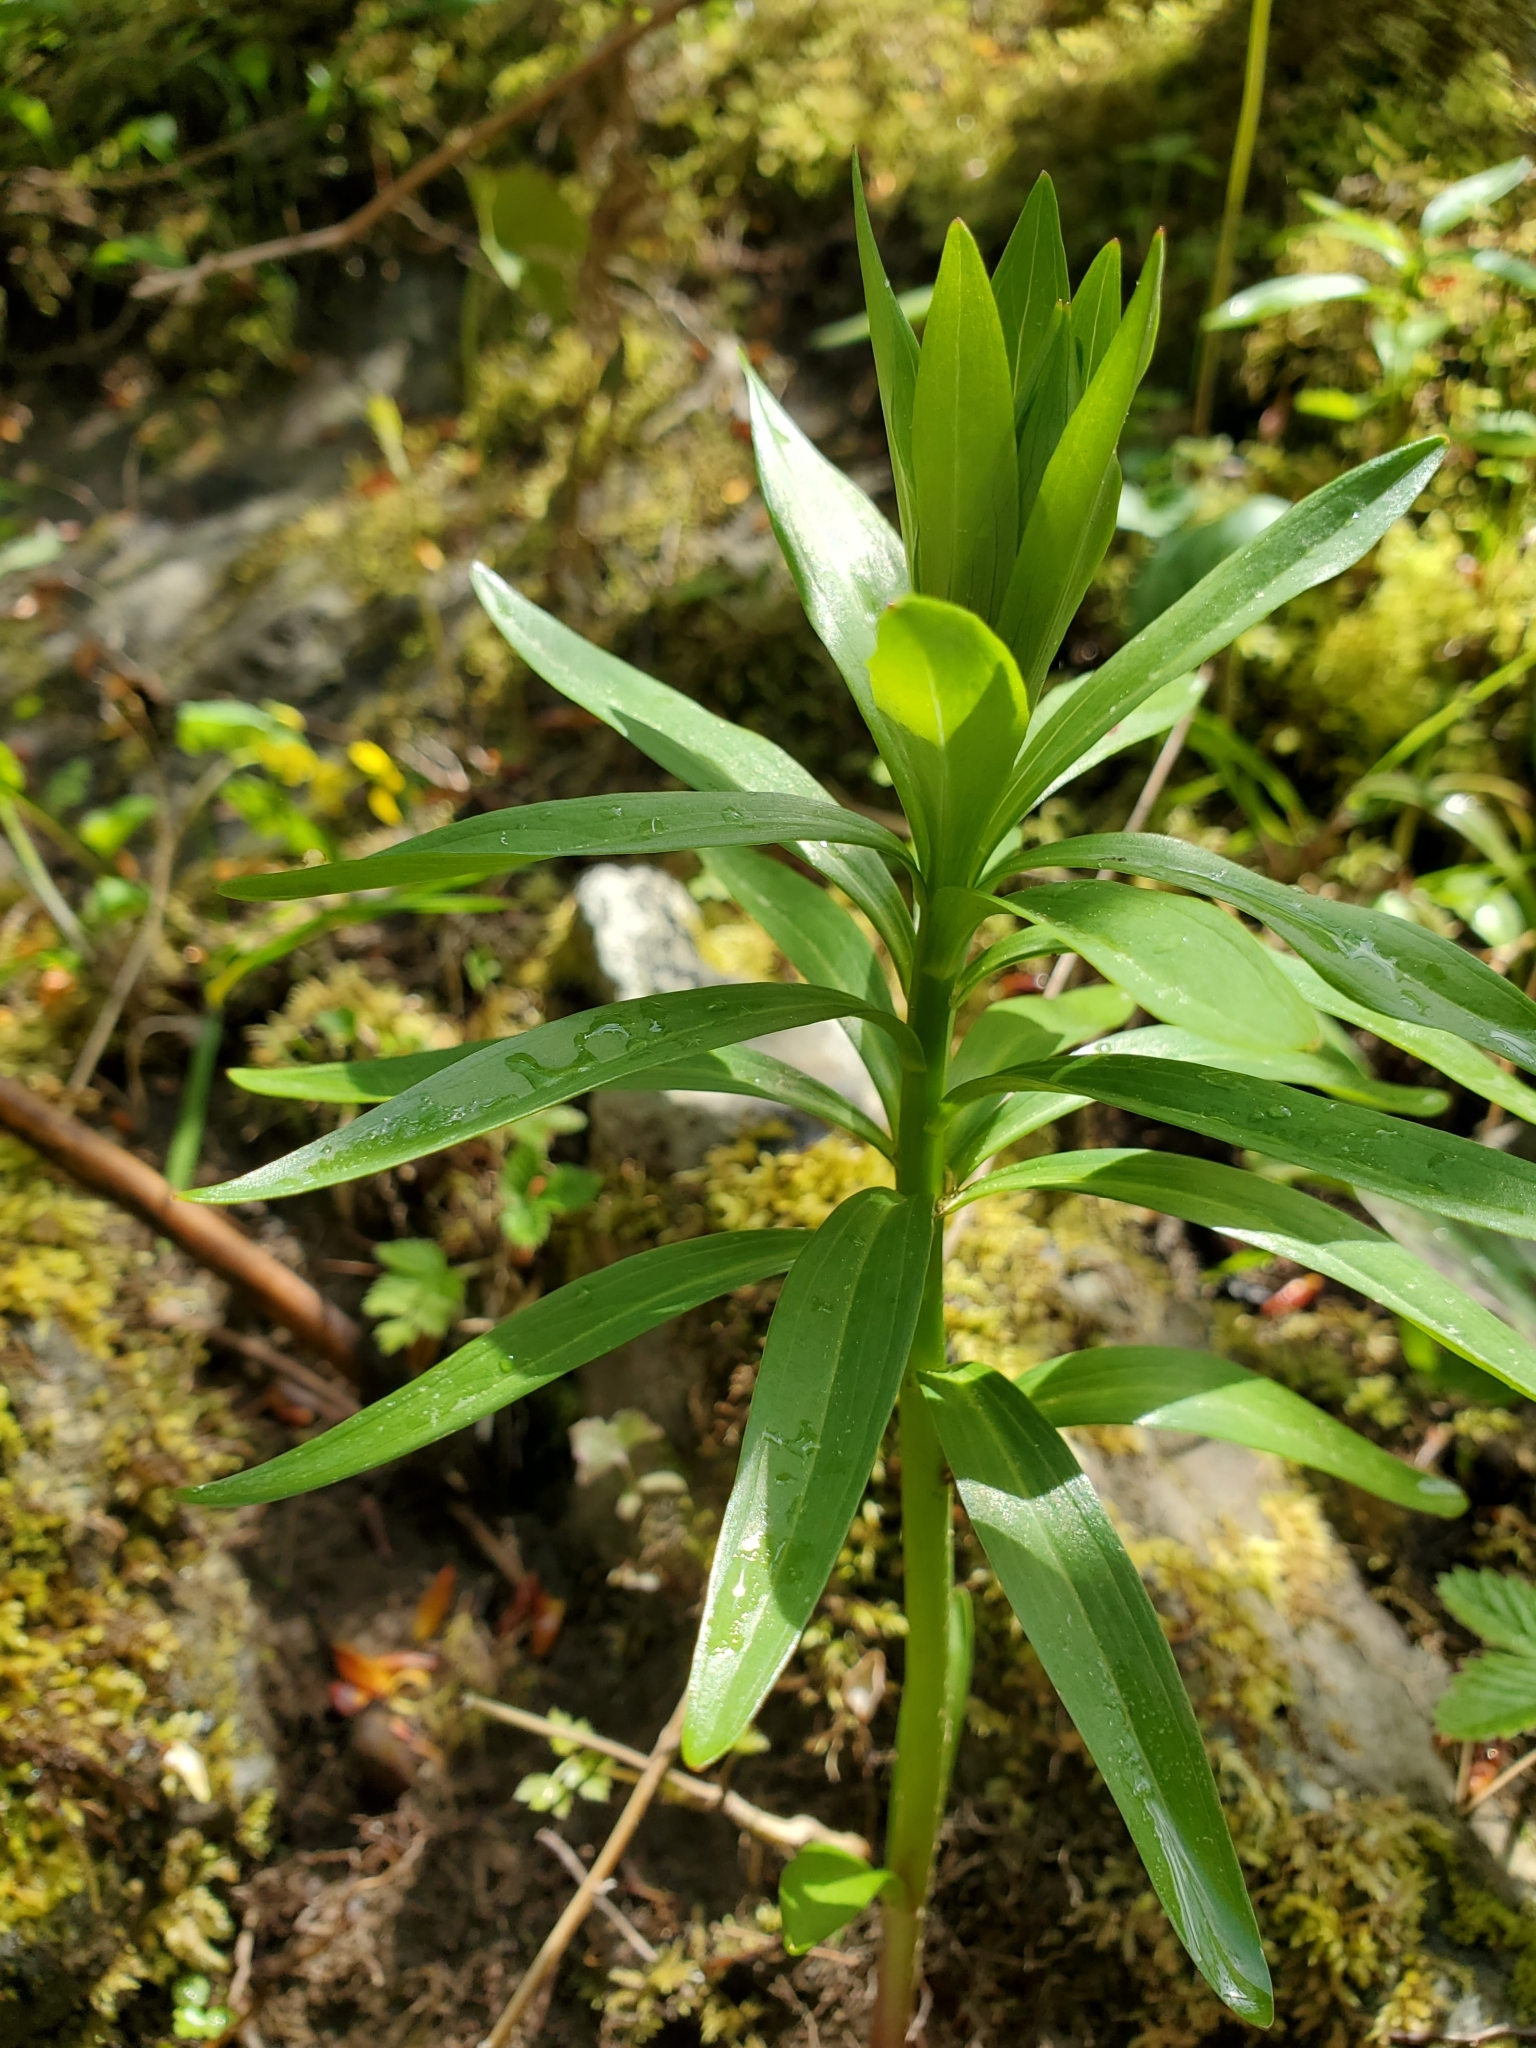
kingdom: Plantae
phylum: Tracheophyta
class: Liliopsida
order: Liliales
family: Liliaceae
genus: Lilium
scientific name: Lilium columbianum
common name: Columbia lily
